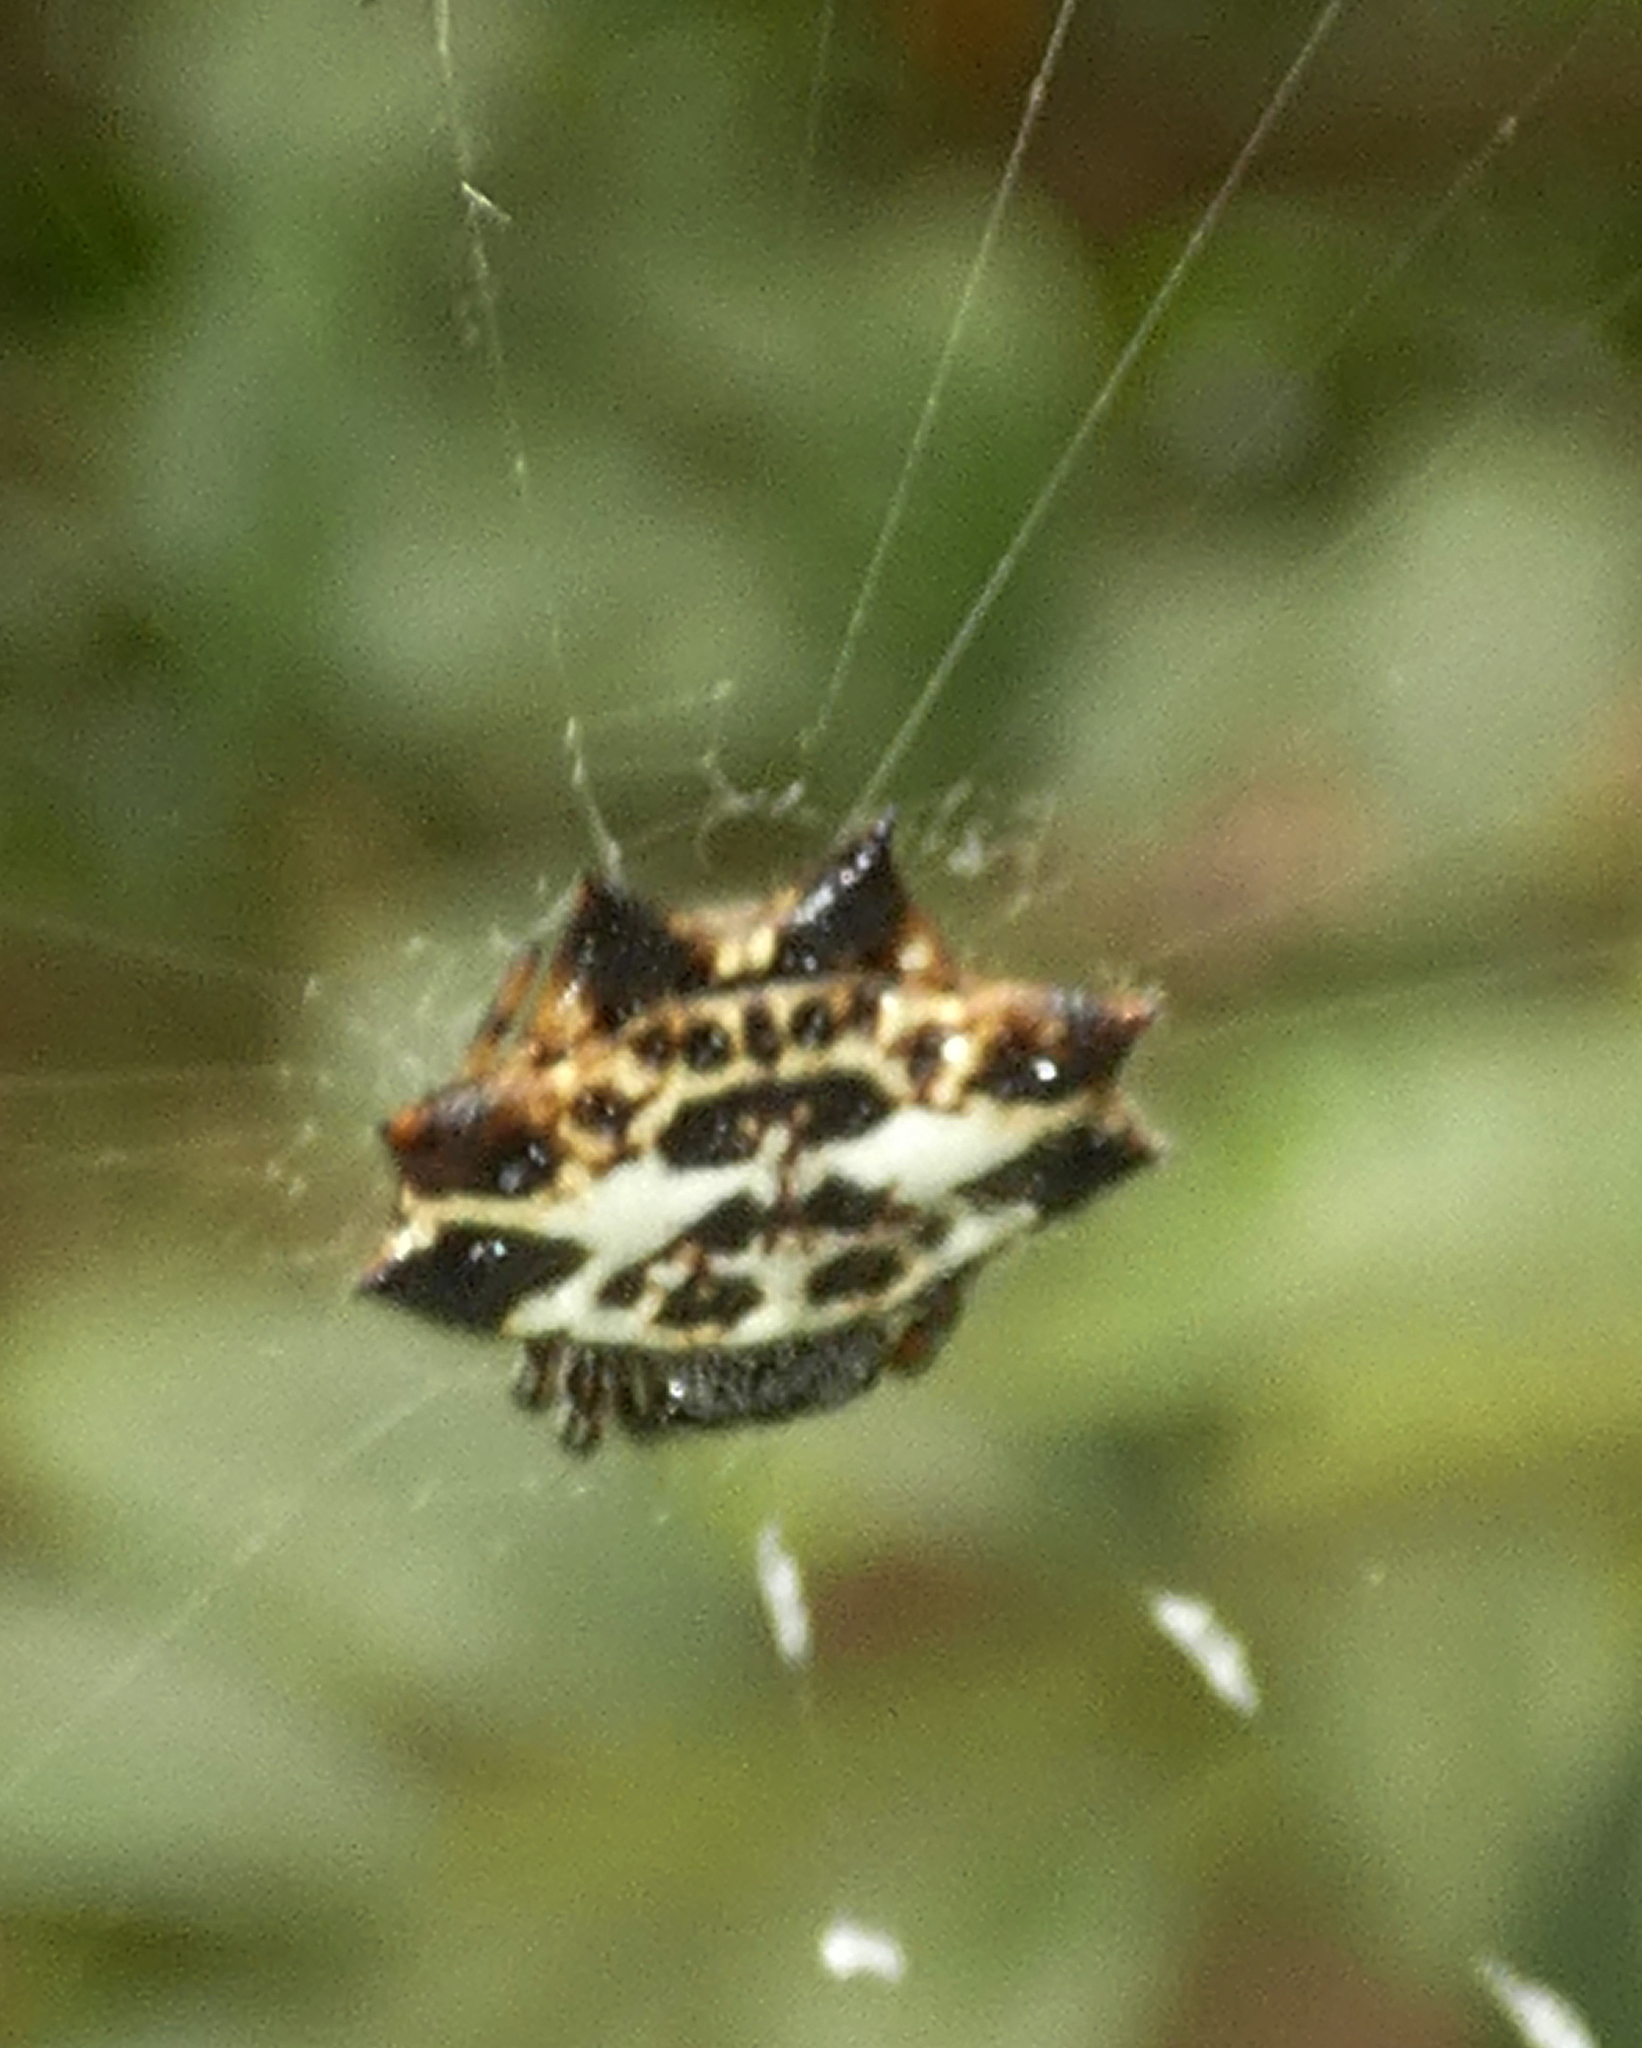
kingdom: Animalia
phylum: Arthropoda
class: Arachnida
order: Araneae
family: Araneidae
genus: Gasteracantha
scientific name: Gasteracantha cancriformis
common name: Orb weavers
